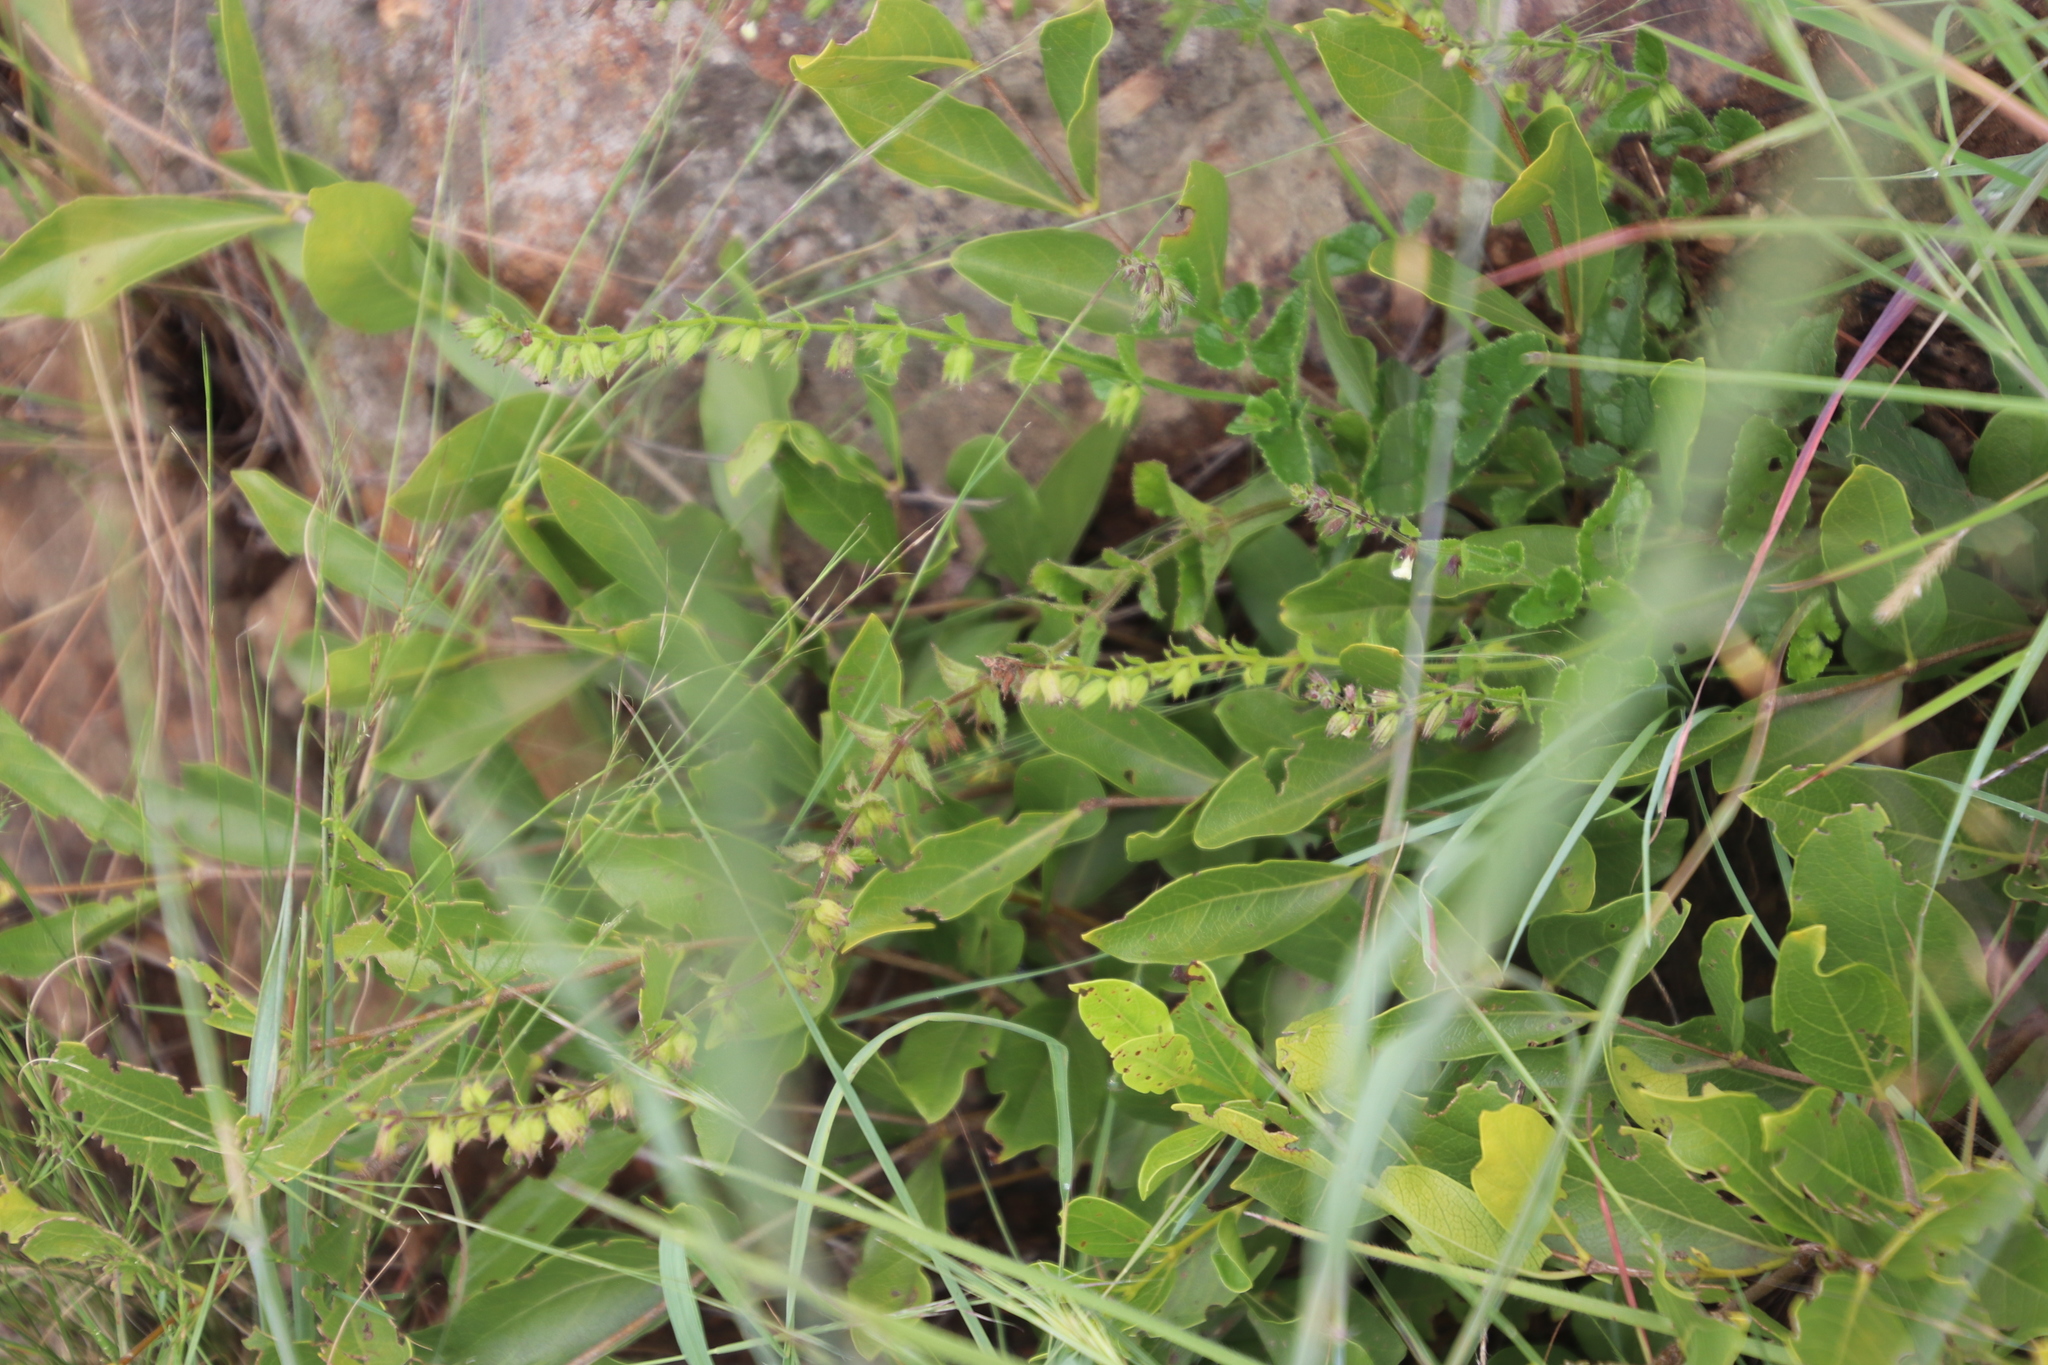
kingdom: Plantae
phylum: Tracheophyta
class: Magnoliopsida
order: Lamiales
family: Lamiaceae
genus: Endostemon
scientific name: Endostemon obtusifolius
